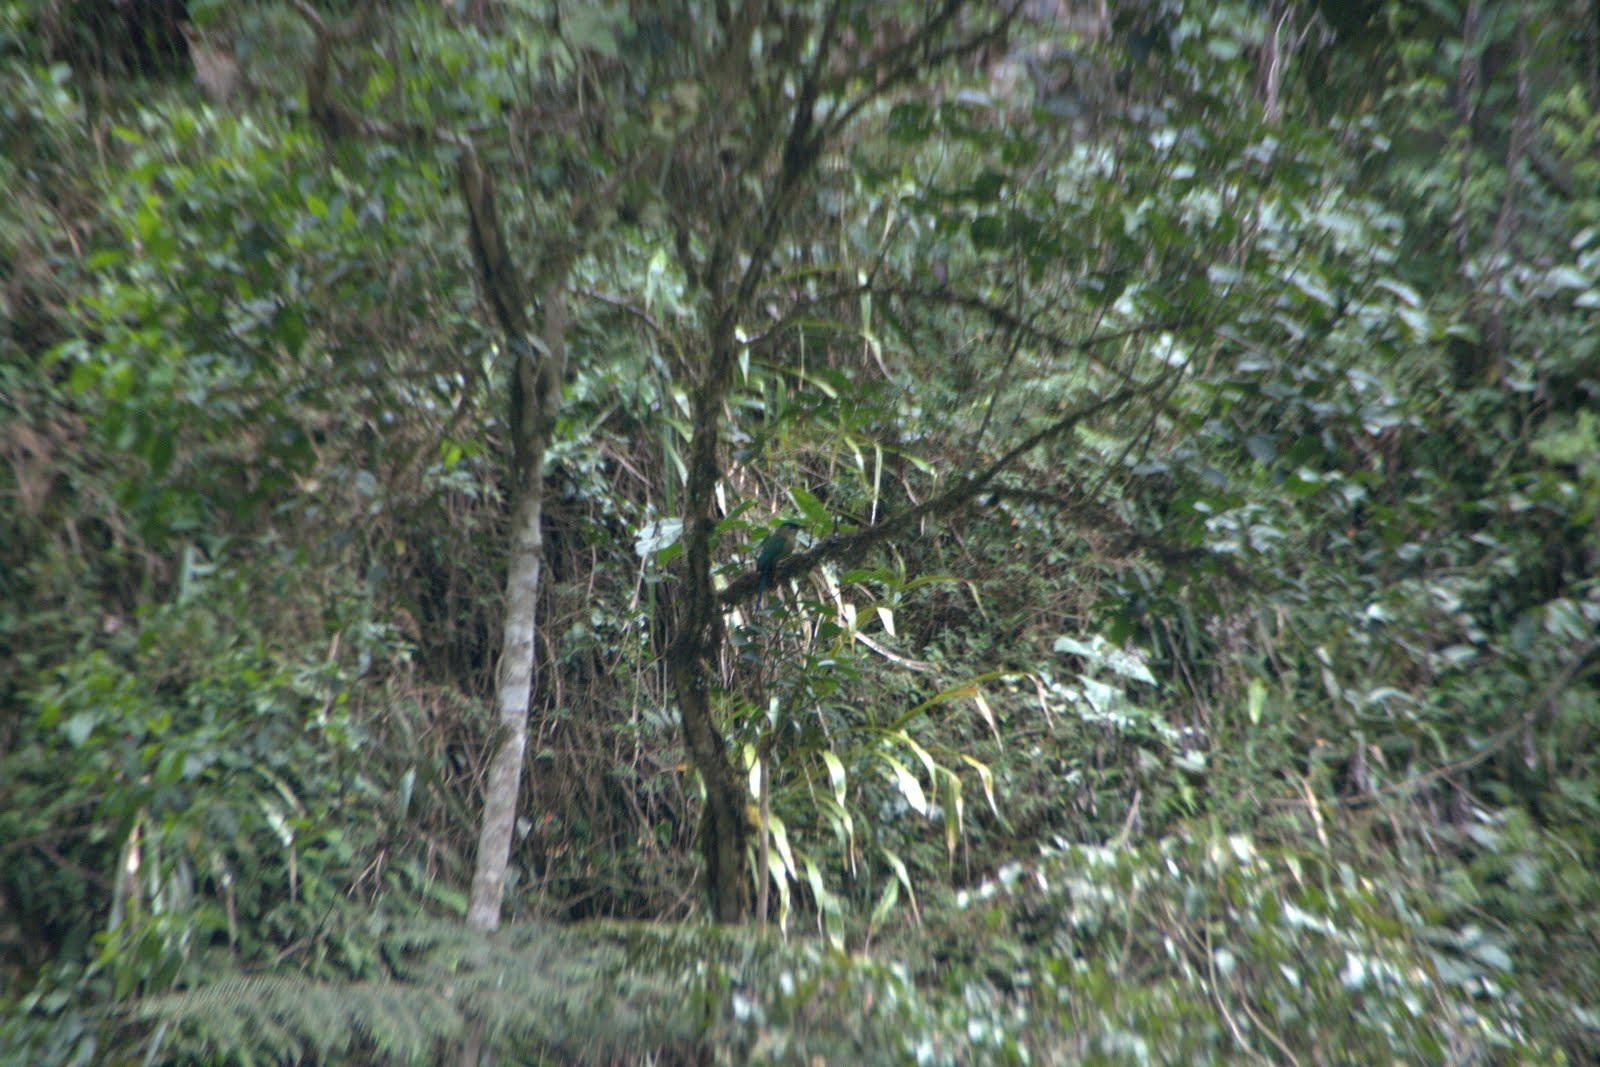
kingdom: Animalia
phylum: Chordata
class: Aves
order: Coraciiformes
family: Momotidae
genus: Momotus
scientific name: Momotus aequatorialis
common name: Andean motmot
